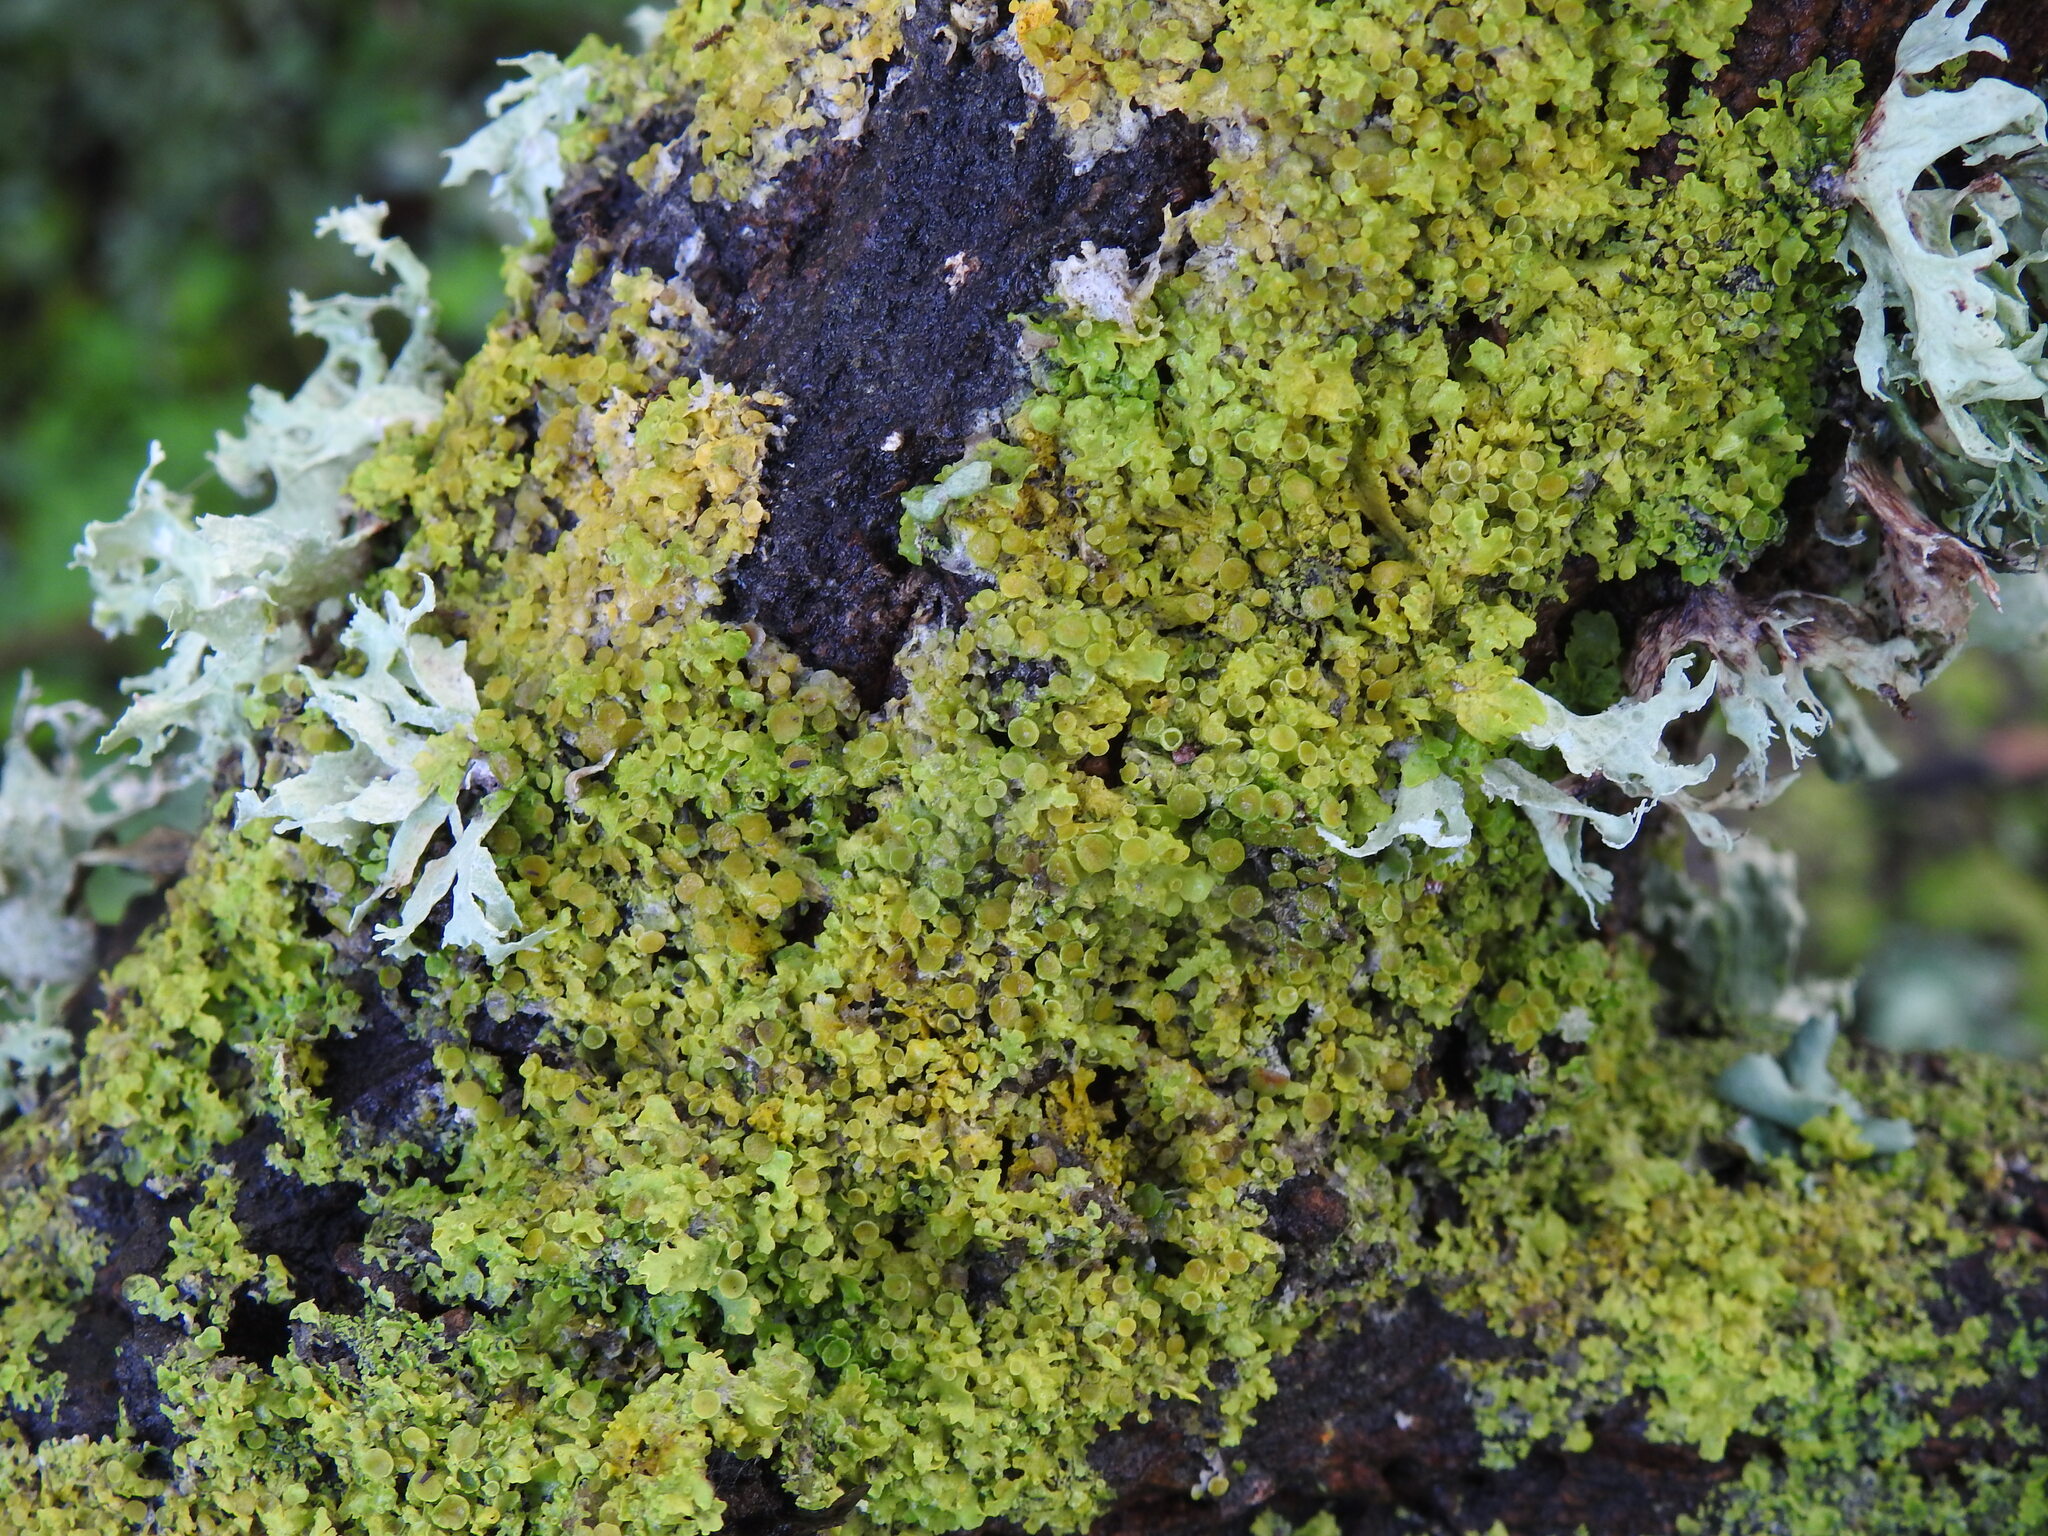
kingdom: Fungi
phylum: Ascomycota
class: Lecanoromycetes
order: Teloschistales
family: Teloschistaceae
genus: Xanthoria
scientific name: Xanthoria parietina
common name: Common orange lichen
